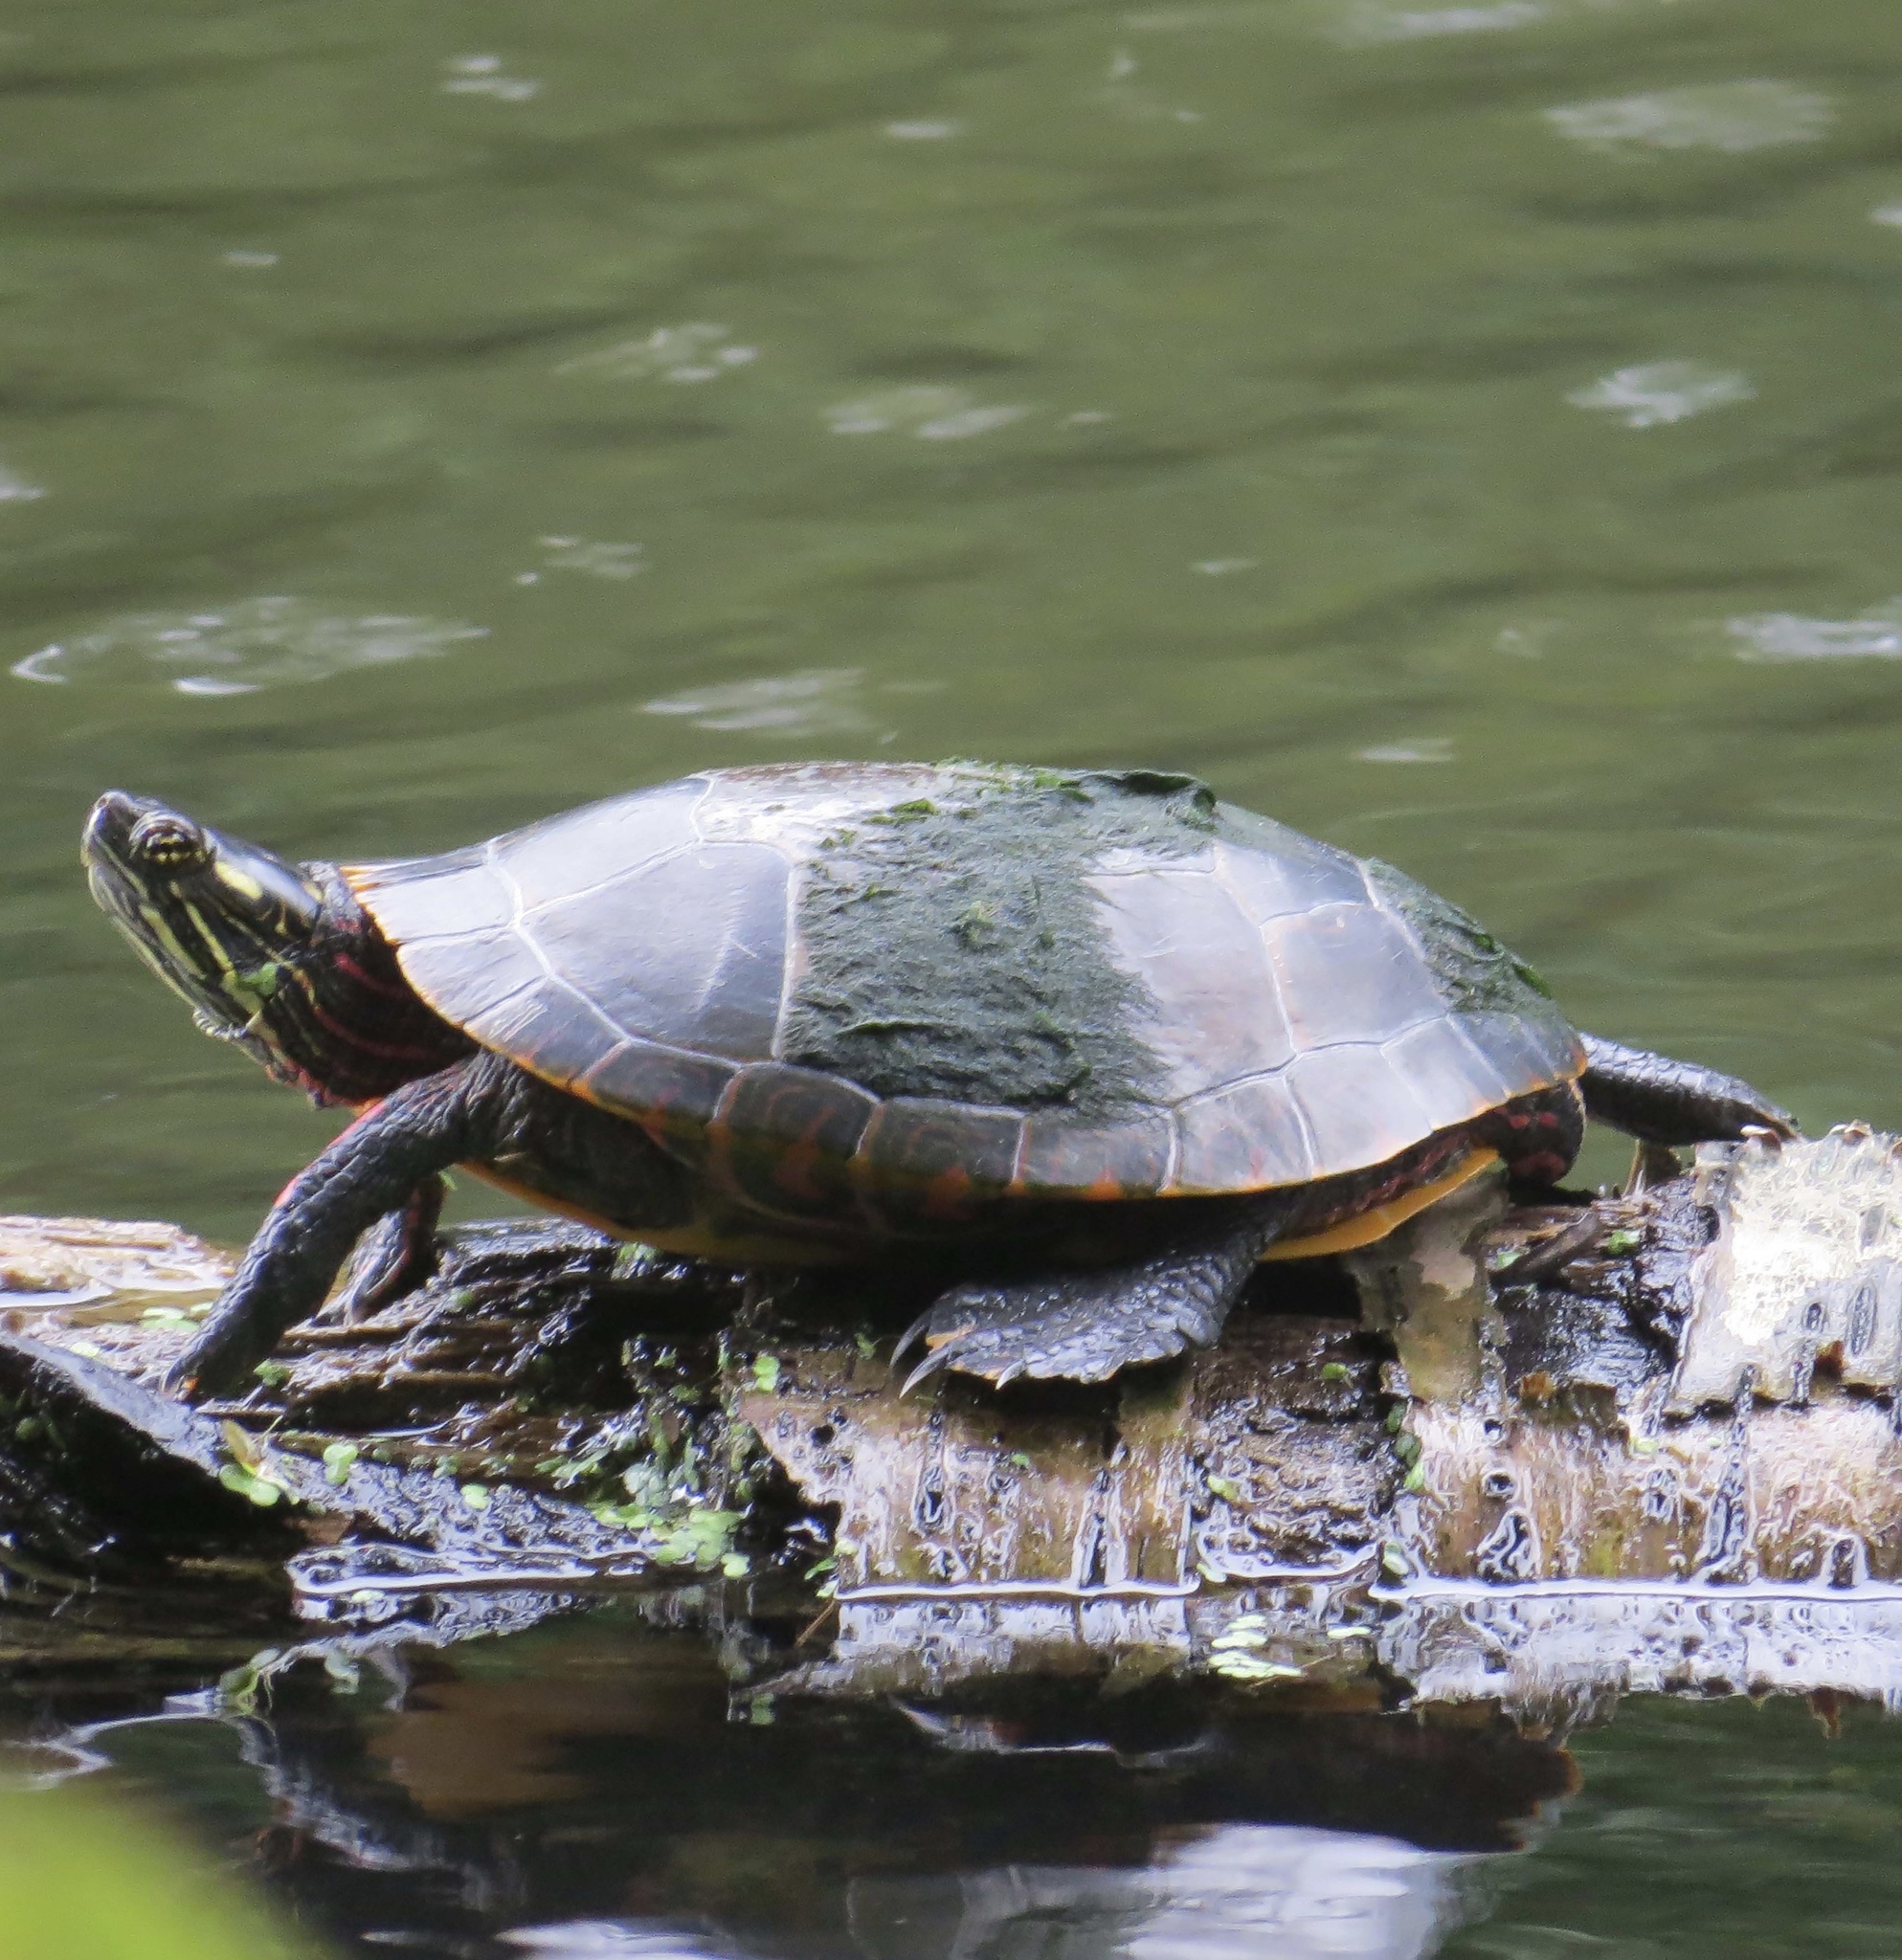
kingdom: Animalia
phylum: Chordata
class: Testudines
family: Emydidae
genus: Chrysemys
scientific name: Chrysemys picta
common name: Painted turtle
